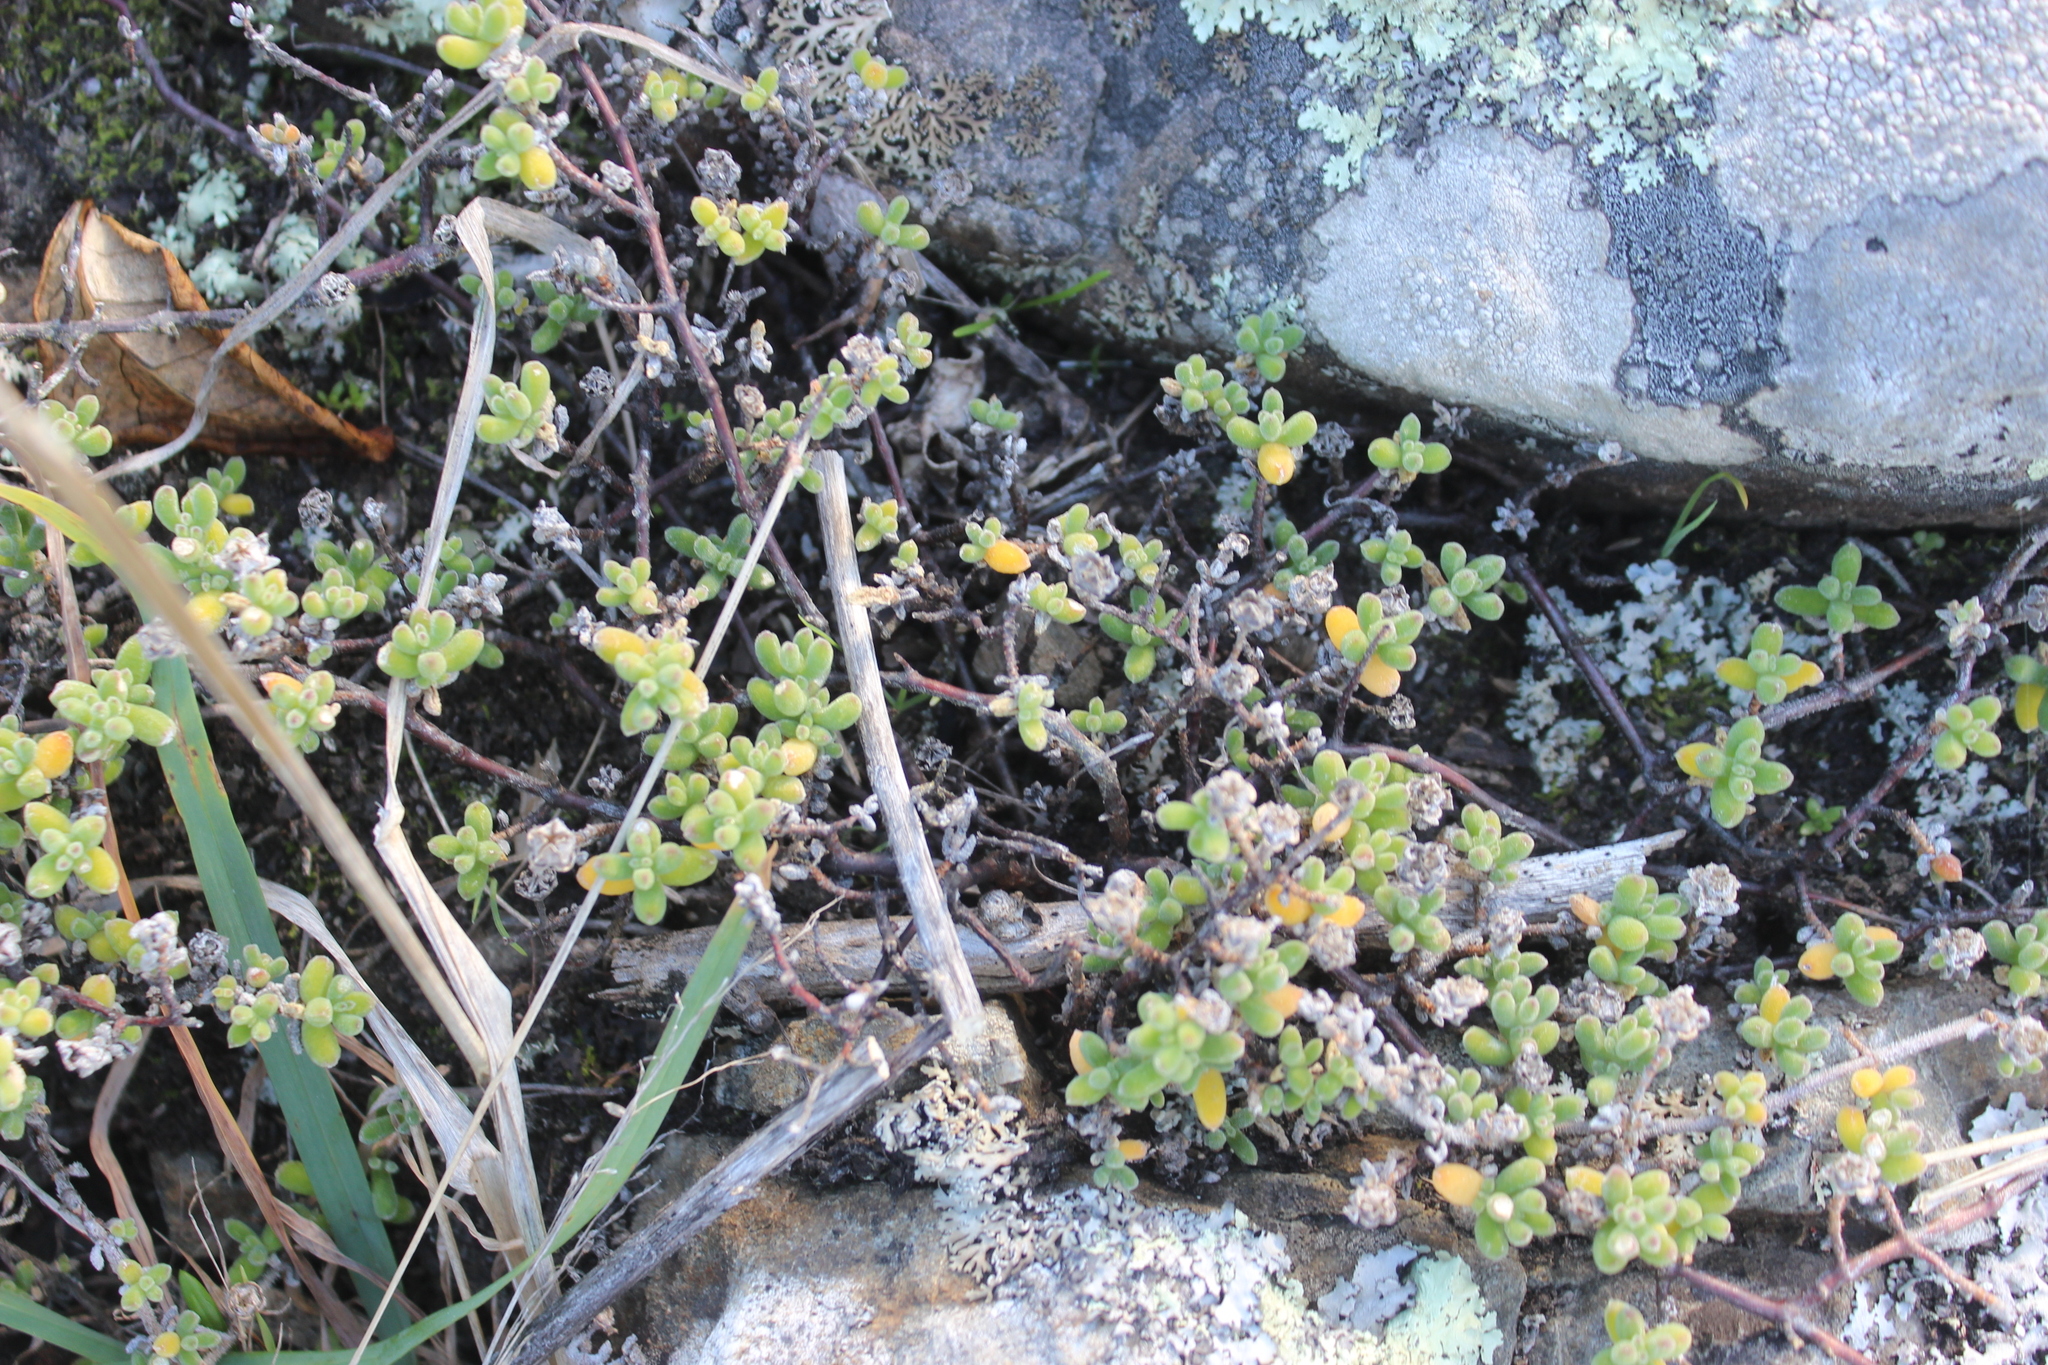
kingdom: Plantae
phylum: Tracheophyta
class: Magnoliopsida
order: Caryophyllales
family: Aizoaceae
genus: Drosanthemum
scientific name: Drosanthemum floribundum
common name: Pale dewplant
